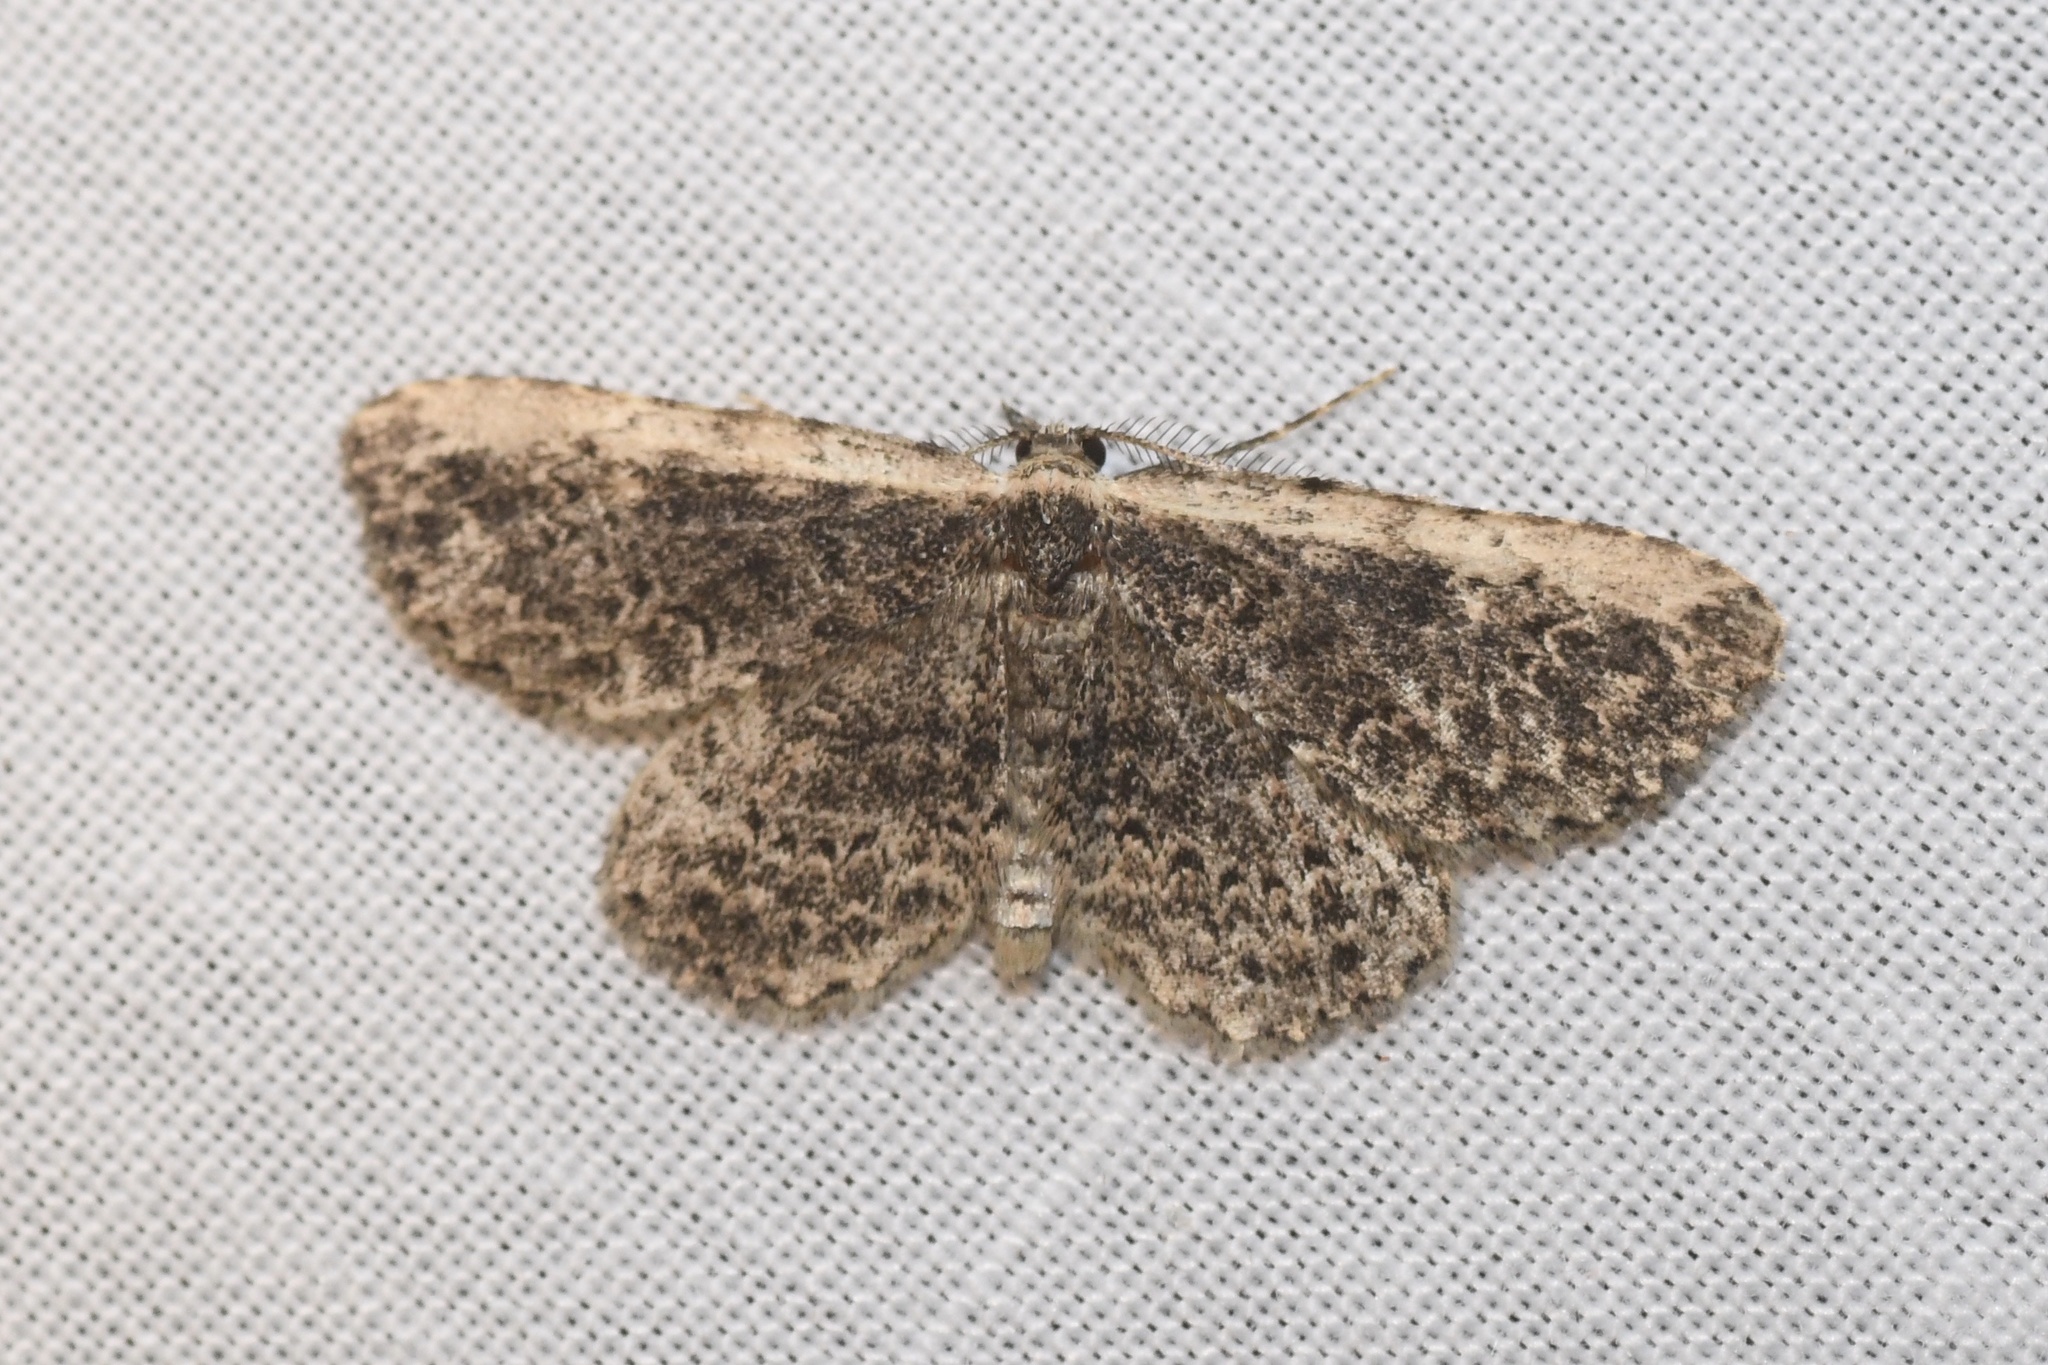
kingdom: Animalia
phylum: Arthropoda
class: Insecta
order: Lepidoptera
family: Erebidae
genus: Mycterophora
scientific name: Mycterophora inexplicata
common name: Pale-edged snout moth
